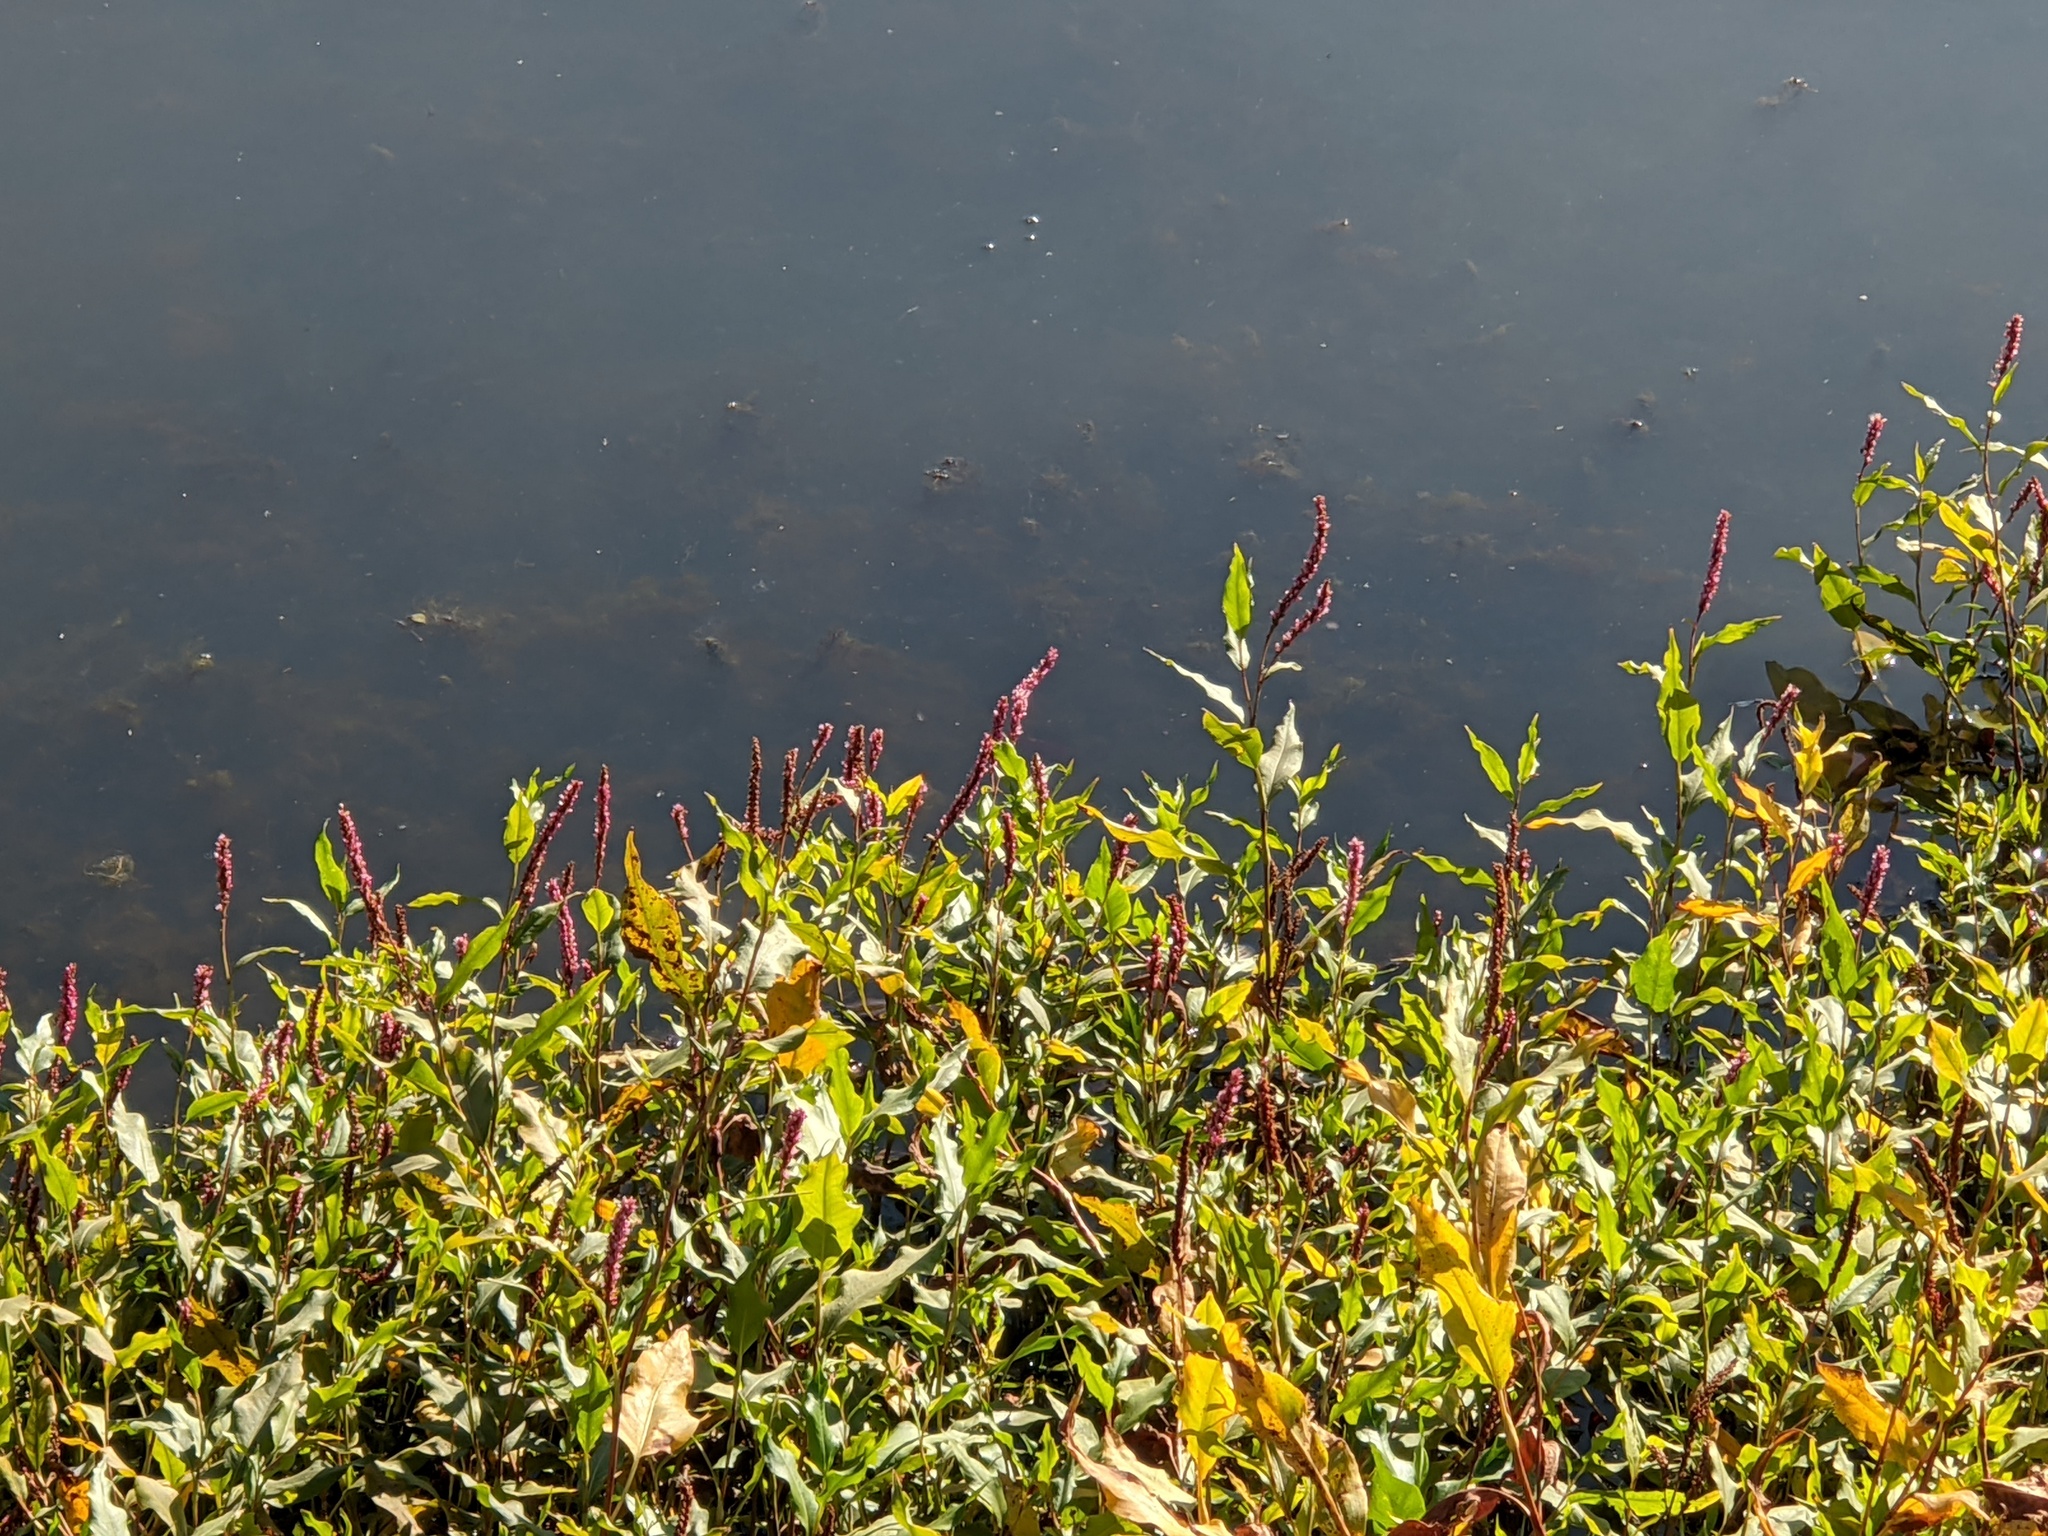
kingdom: Plantae
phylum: Tracheophyta
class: Magnoliopsida
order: Caryophyllales
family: Polygonaceae
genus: Persicaria
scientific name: Persicaria amphibia
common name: Amphibious bistort
